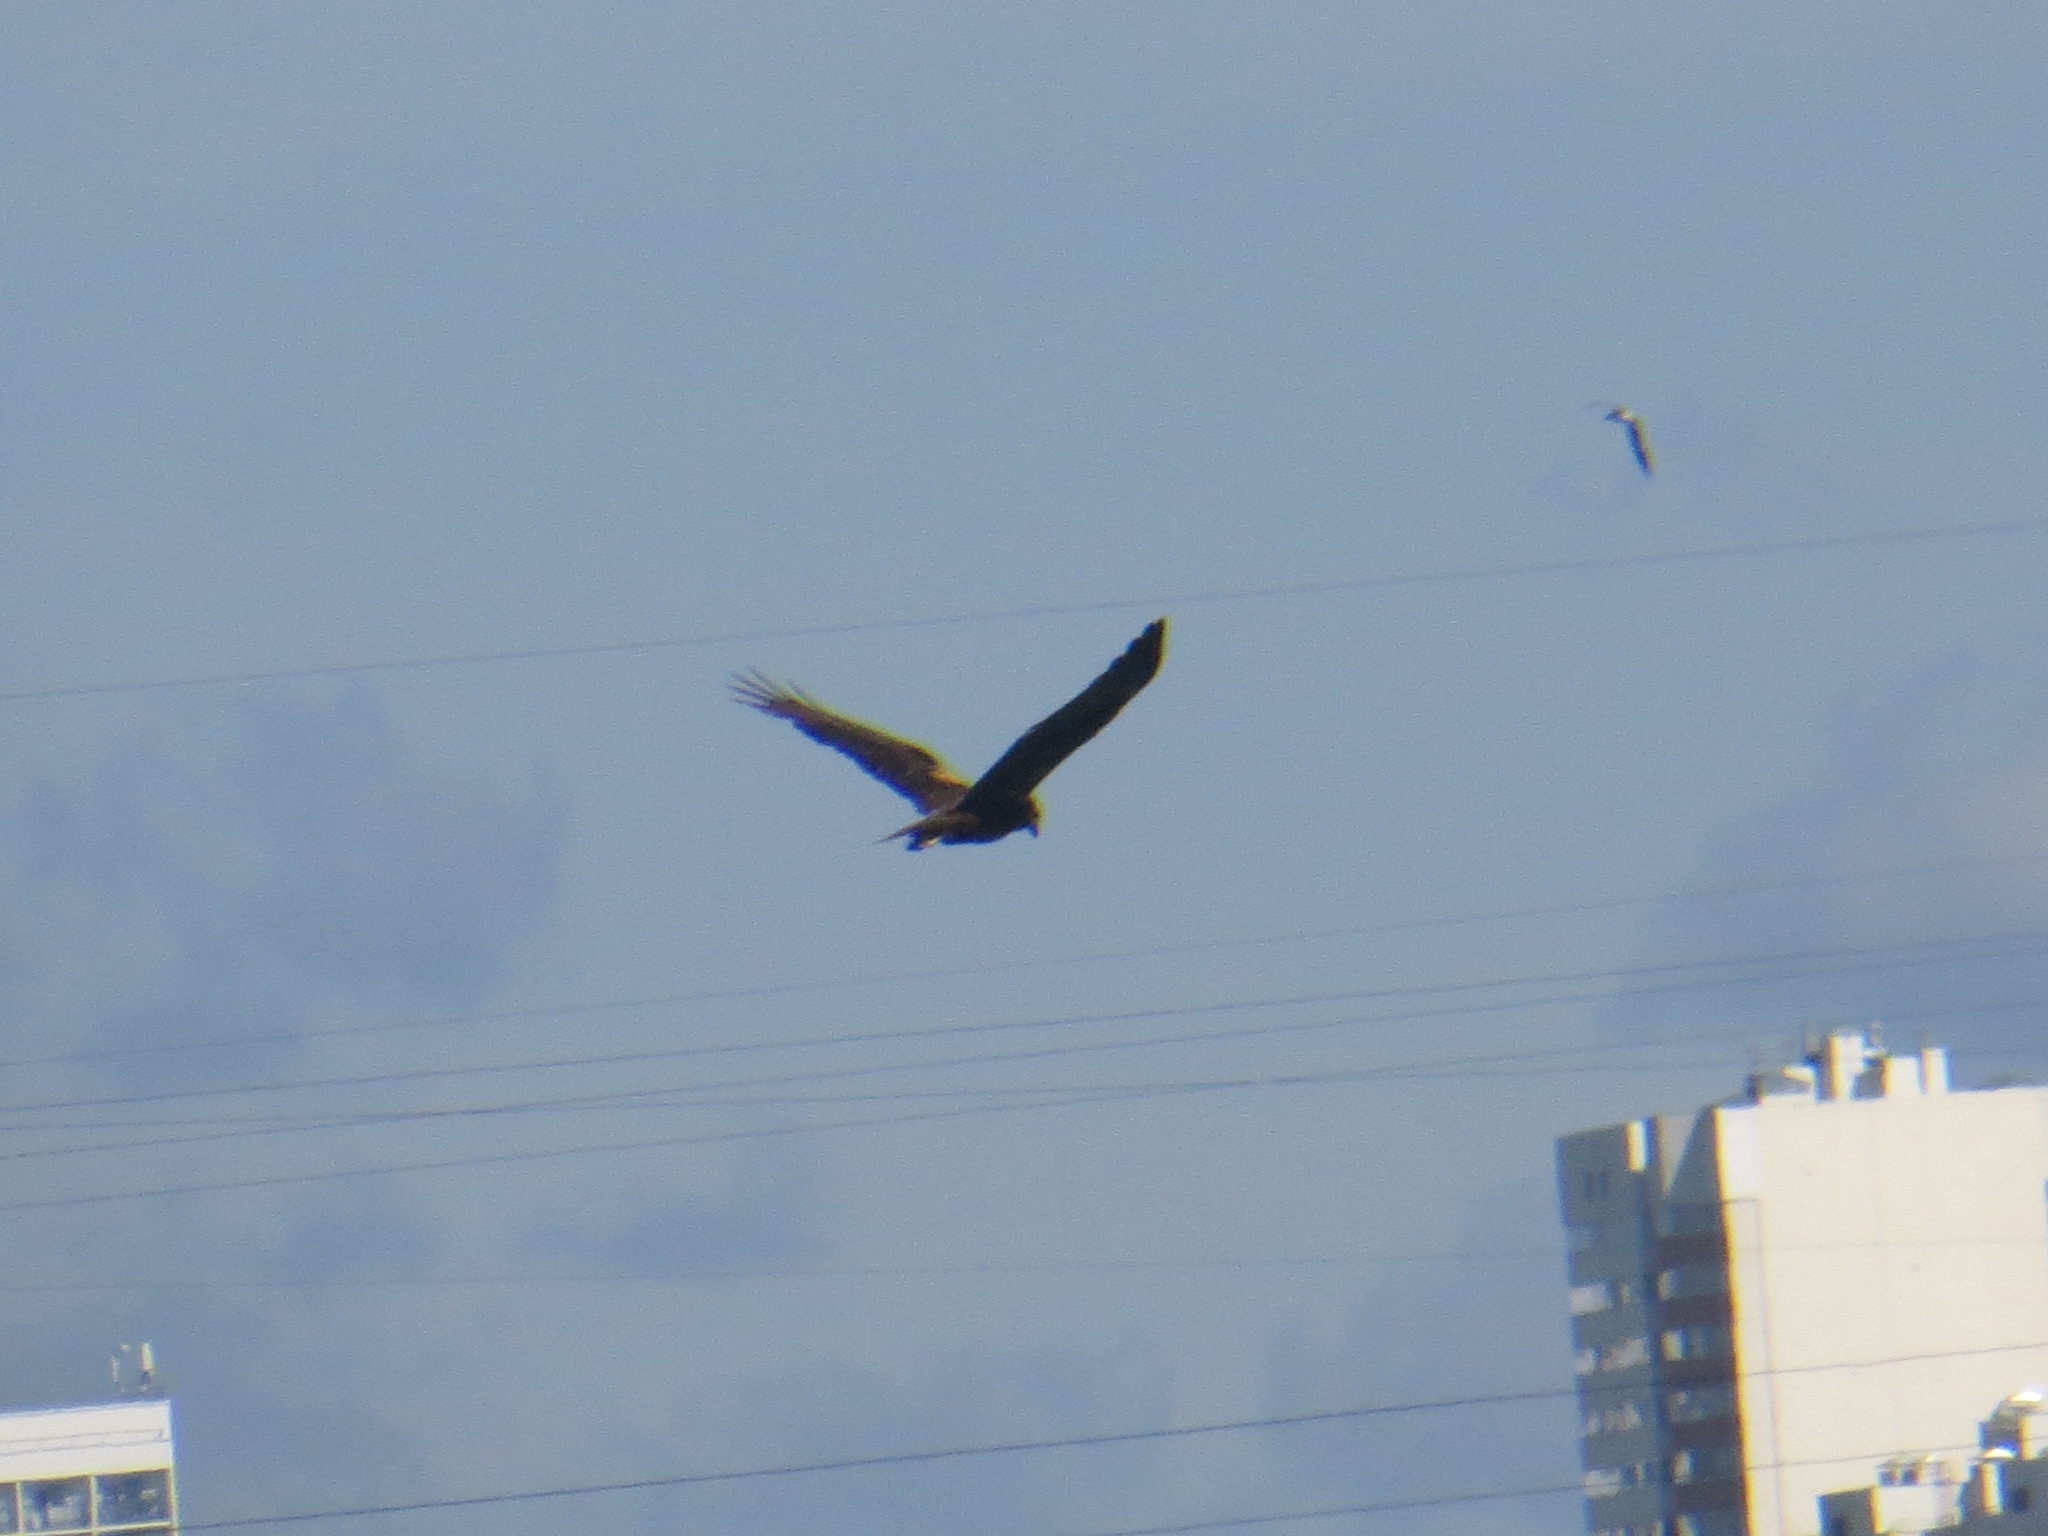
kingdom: Animalia
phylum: Chordata
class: Aves
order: Accipitriformes
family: Accipitridae
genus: Circus
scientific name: Circus aeruginosus
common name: Western marsh harrier
